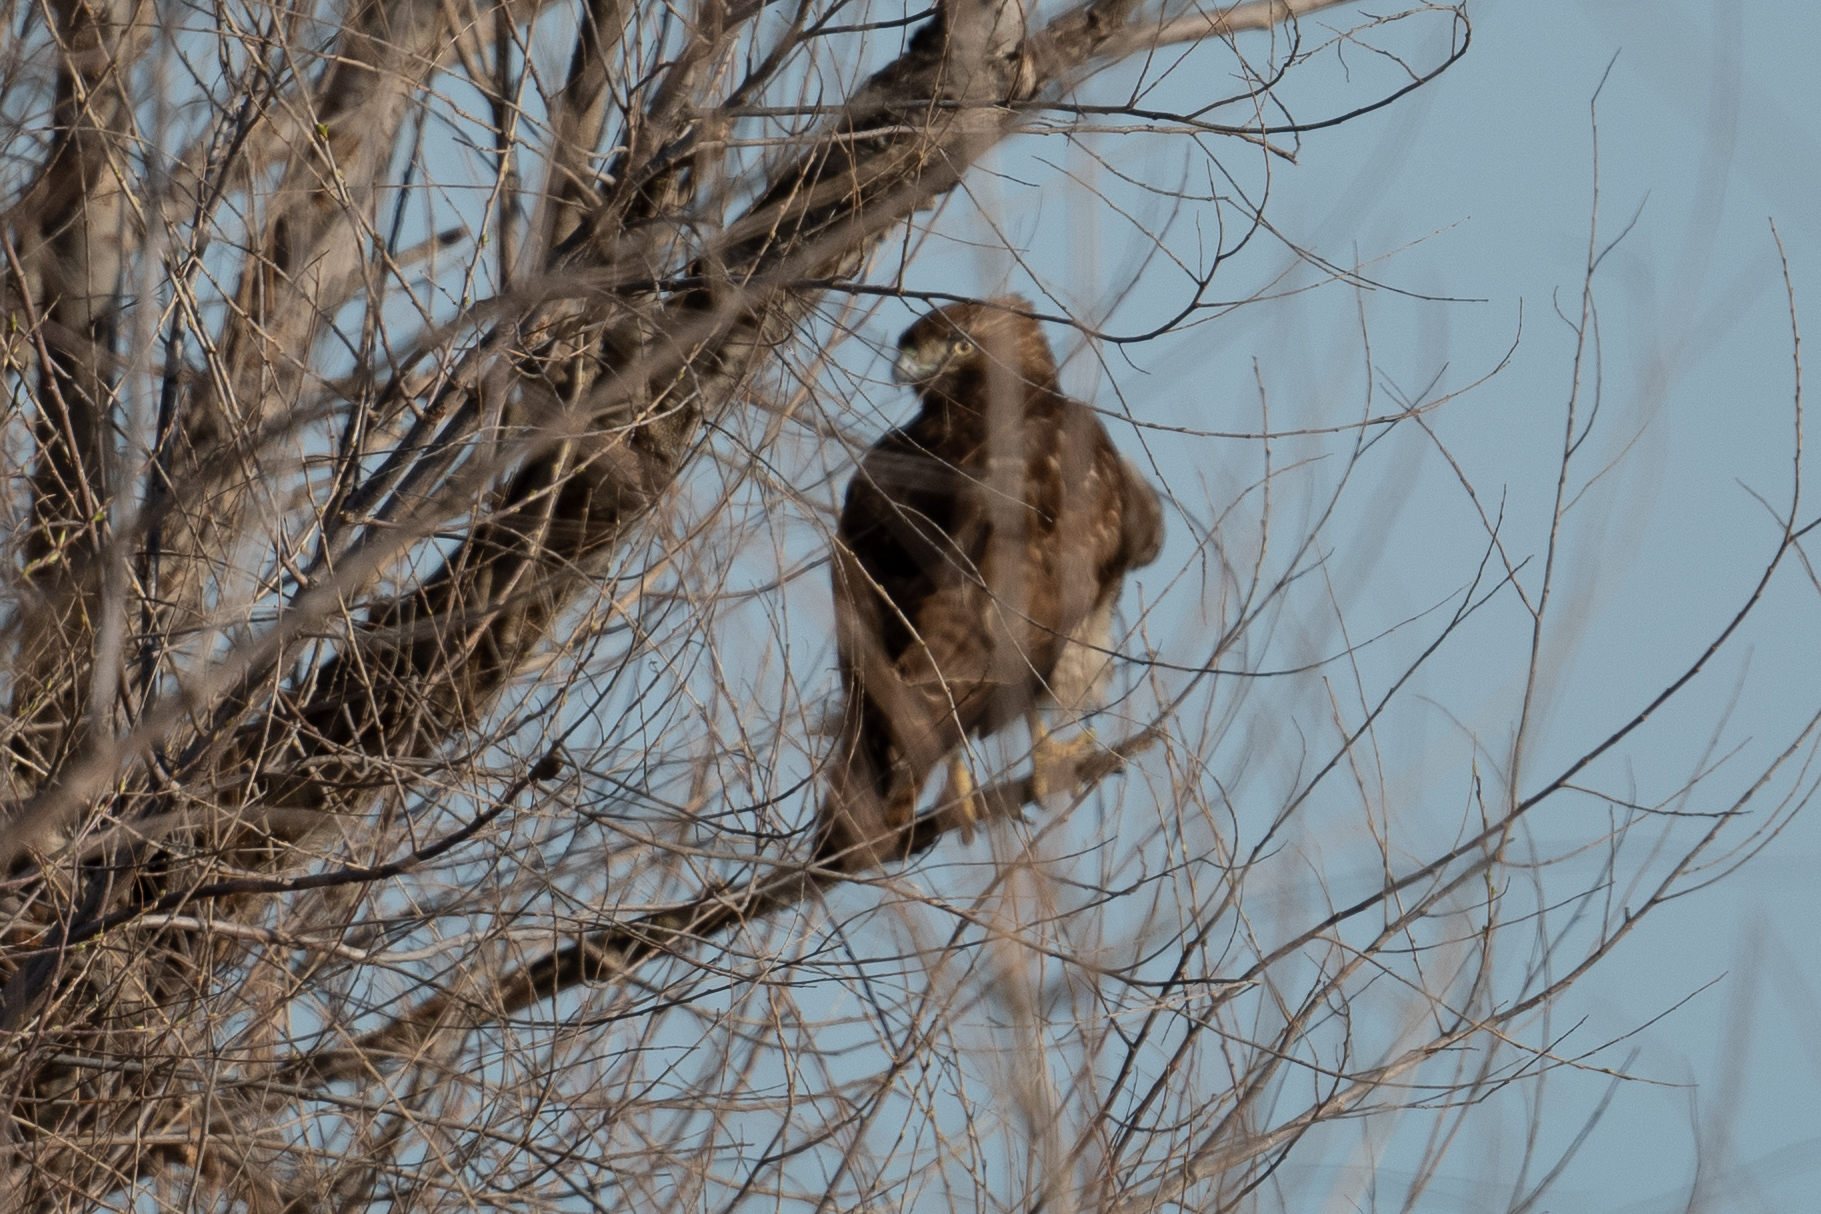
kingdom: Animalia
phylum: Chordata
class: Aves
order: Accipitriformes
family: Accipitridae
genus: Buteo
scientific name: Buteo jamaicensis
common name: Red-tailed hawk
